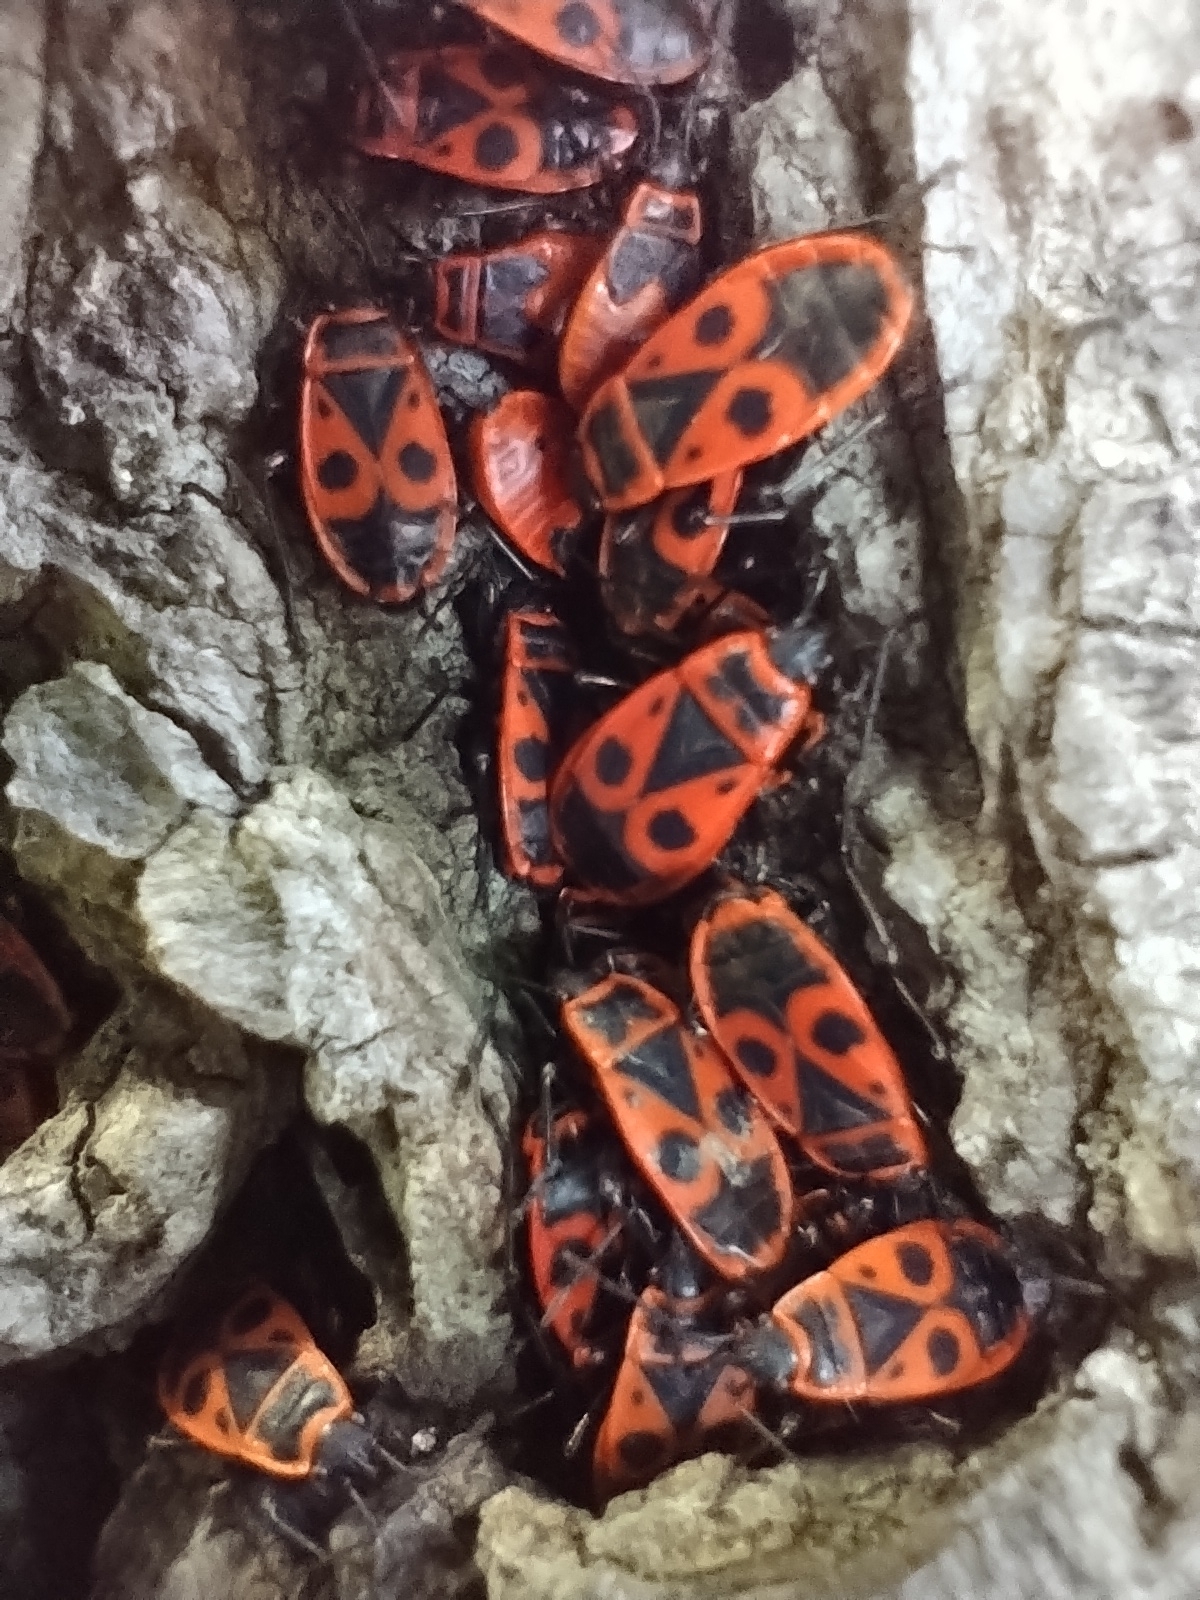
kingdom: Animalia
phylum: Arthropoda
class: Insecta
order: Hemiptera
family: Pyrrhocoridae
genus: Pyrrhocoris
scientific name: Pyrrhocoris apterus
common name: Firebug
